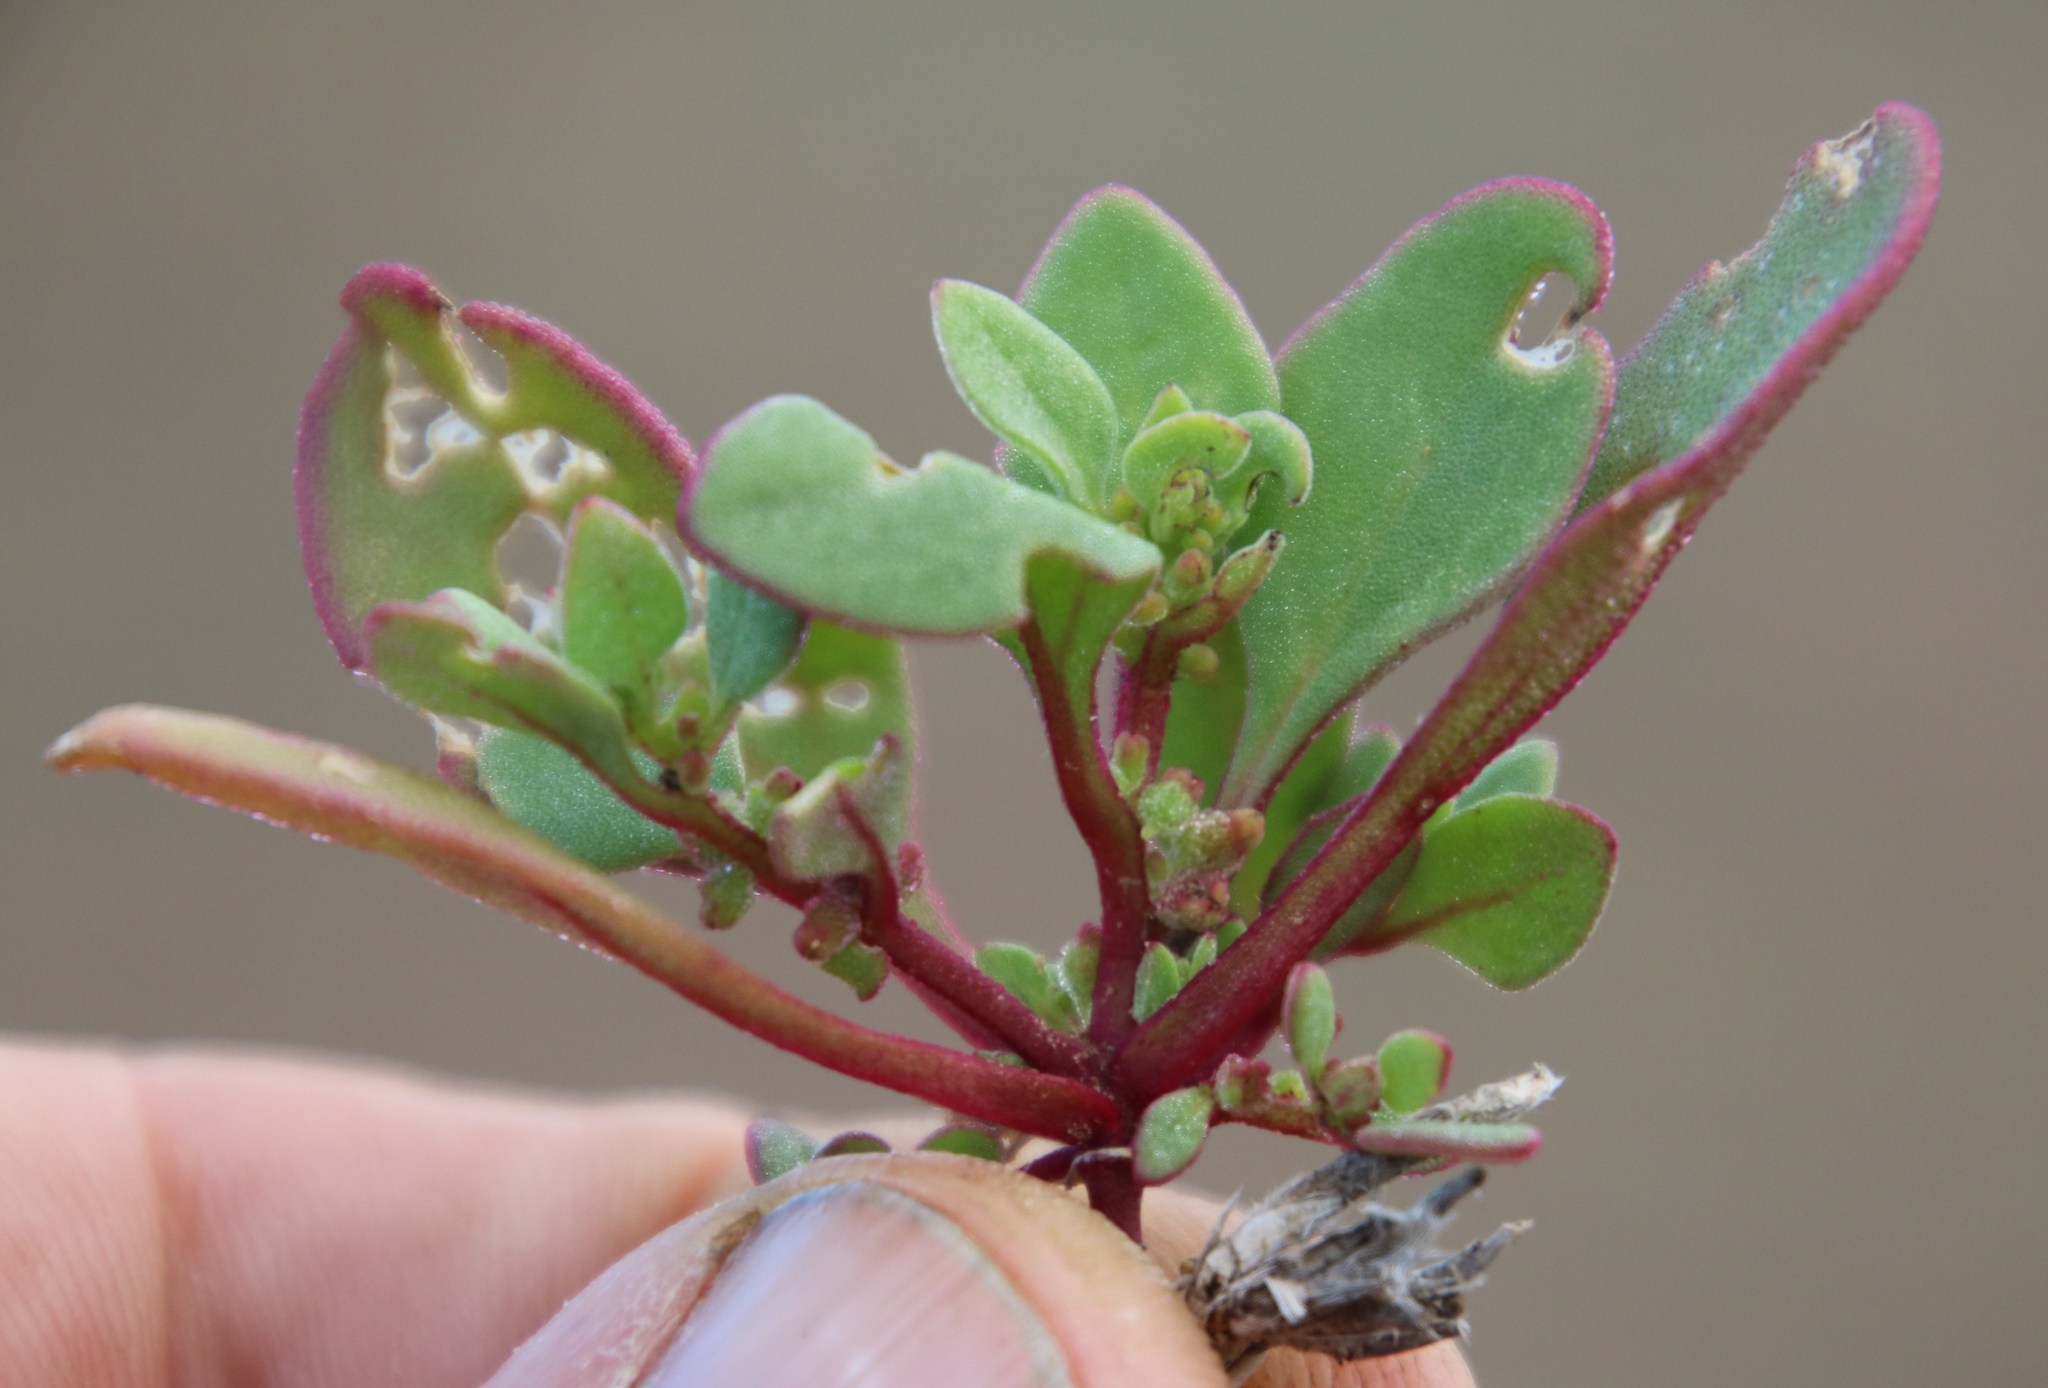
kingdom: Plantae
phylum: Tracheophyta
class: Magnoliopsida
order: Caryophyllales
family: Aizoaceae
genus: Tetragonia
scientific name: Tetragonia echinata
